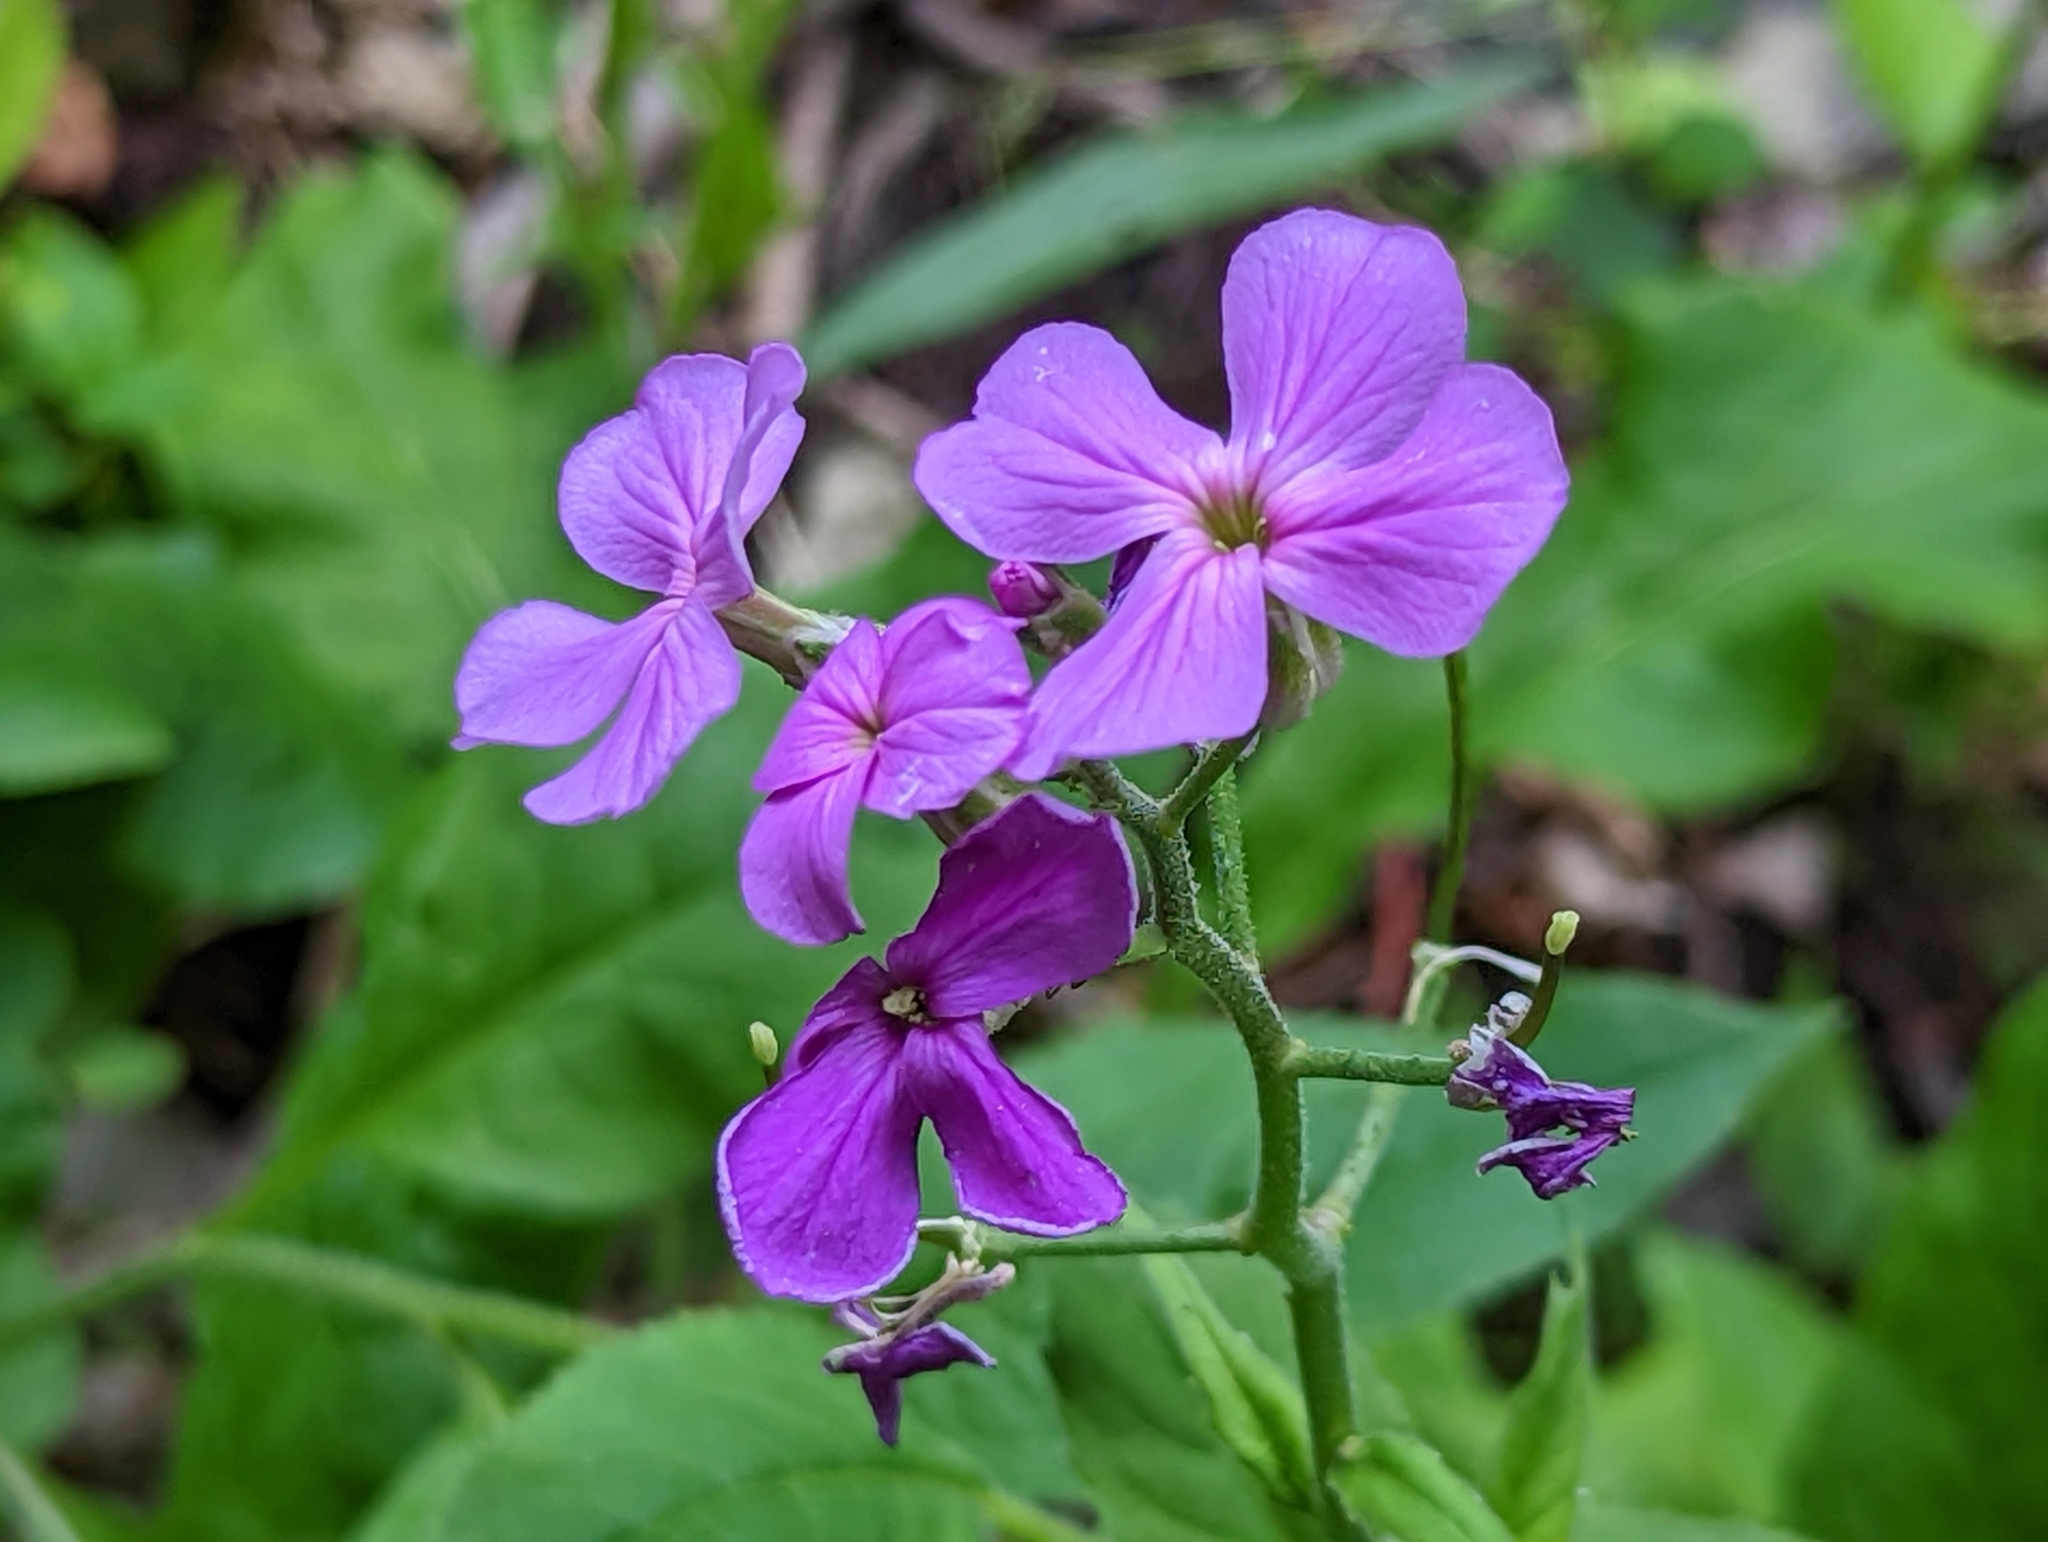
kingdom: Plantae
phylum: Tracheophyta
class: Magnoliopsida
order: Brassicales
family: Brassicaceae
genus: Hesperis
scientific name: Hesperis matronalis
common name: Dame's-violet
